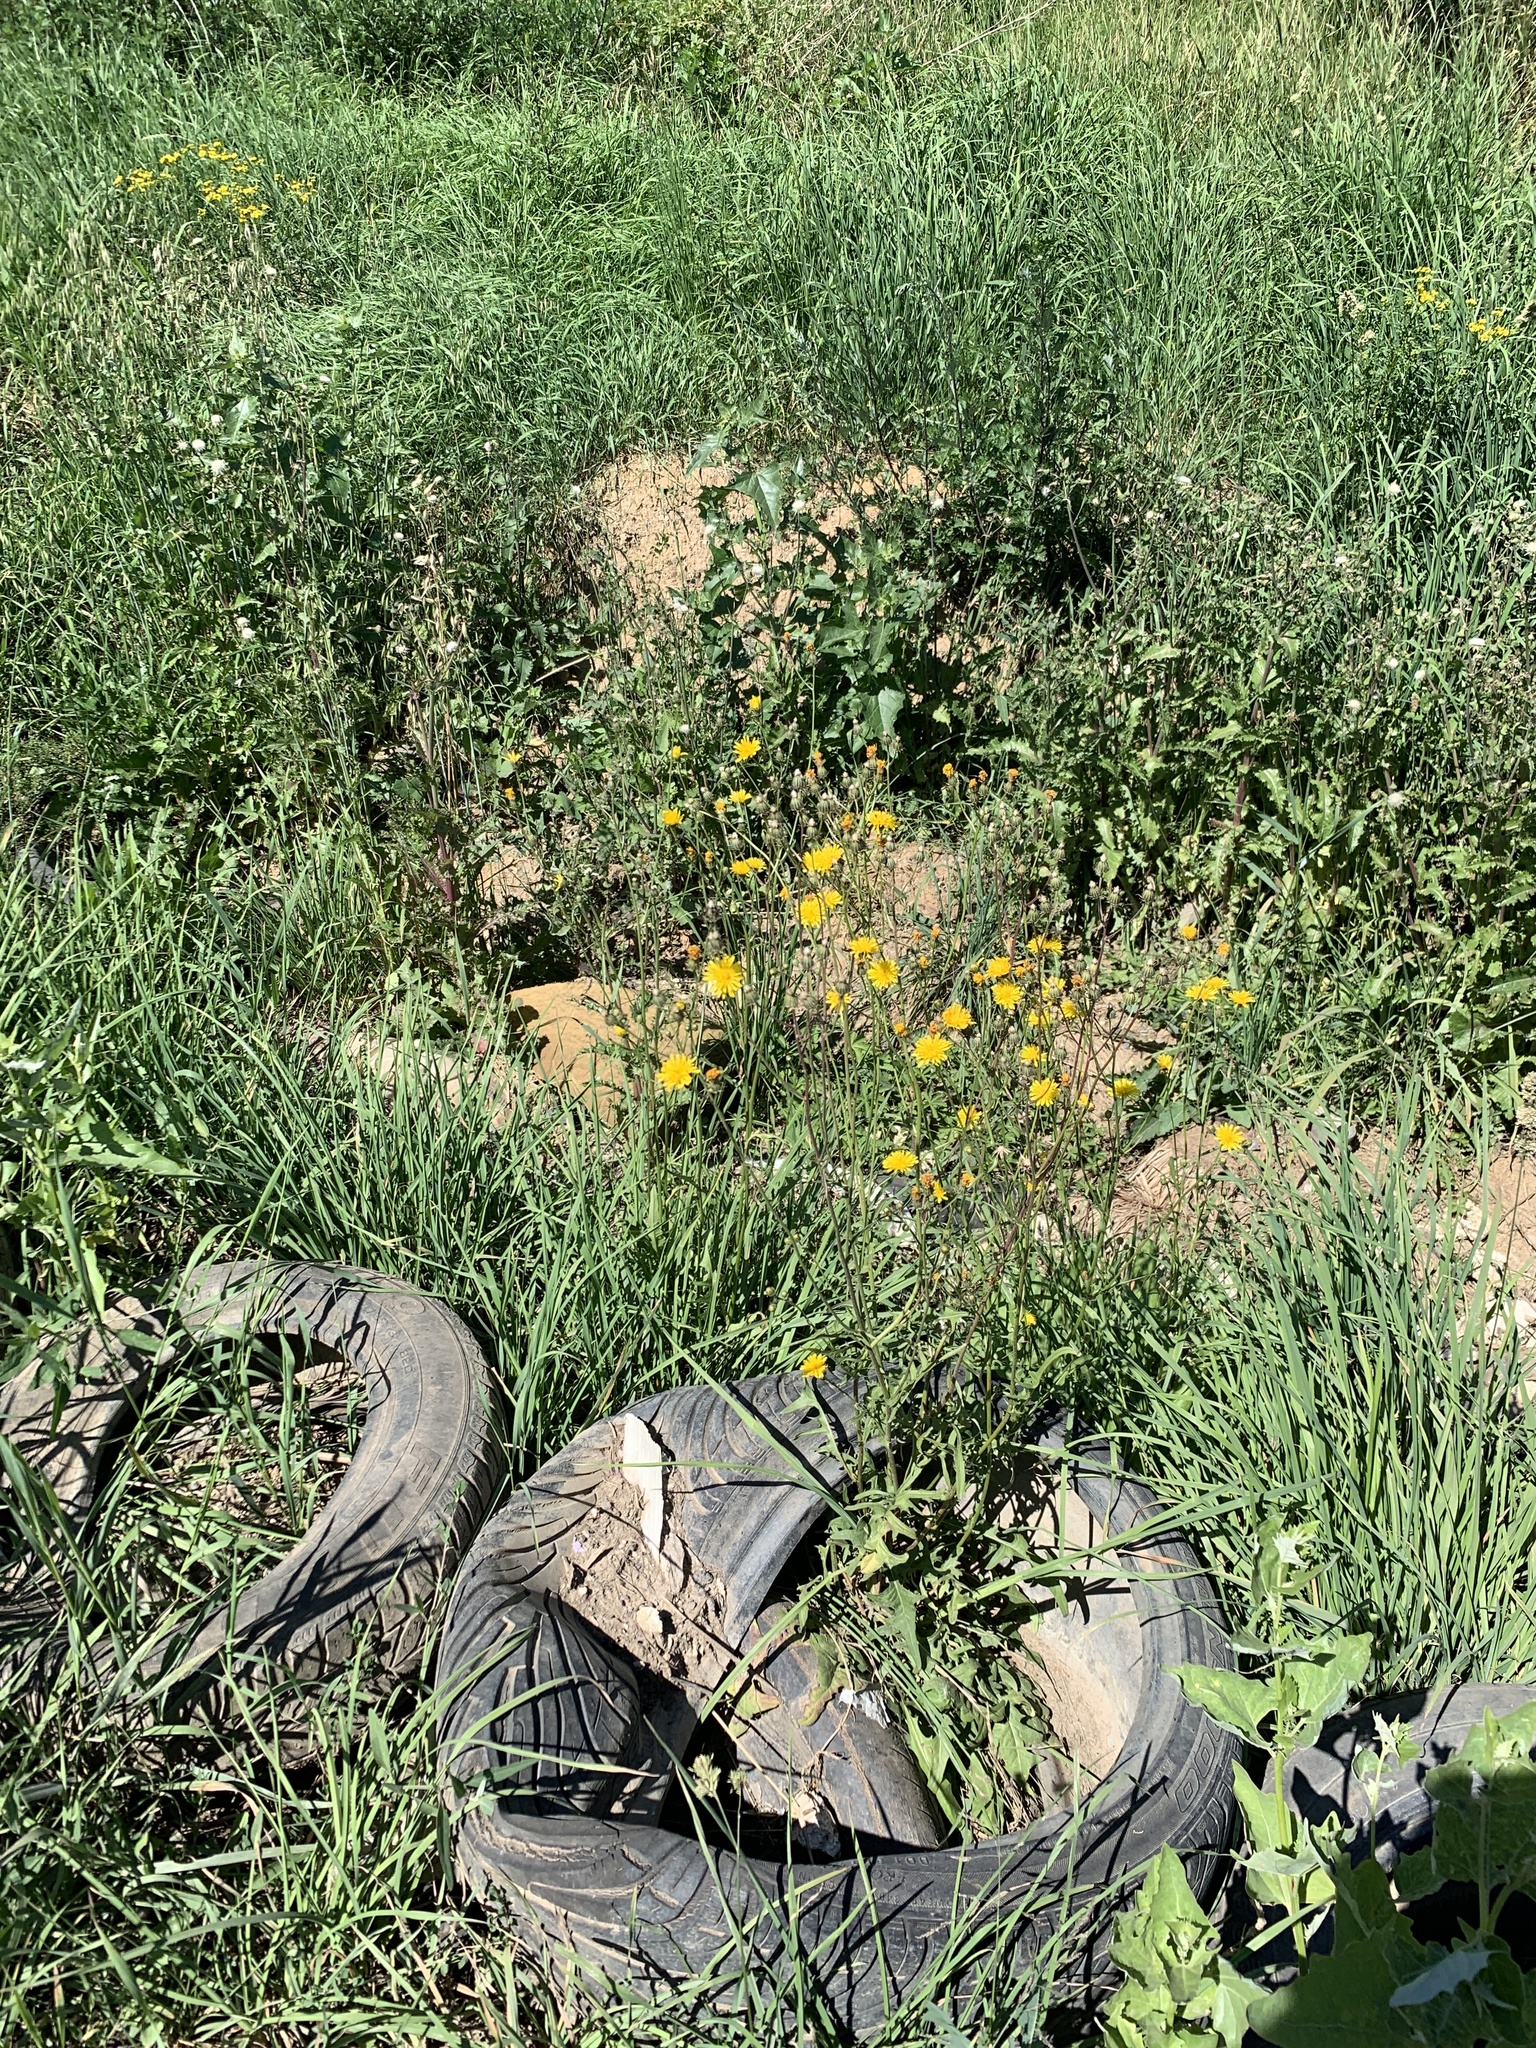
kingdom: Plantae
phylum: Tracheophyta
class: Magnoliopsida
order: Asterales
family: Asteraceae
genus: Crepis
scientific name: Crepis biennis
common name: Rough hawk's-beard
